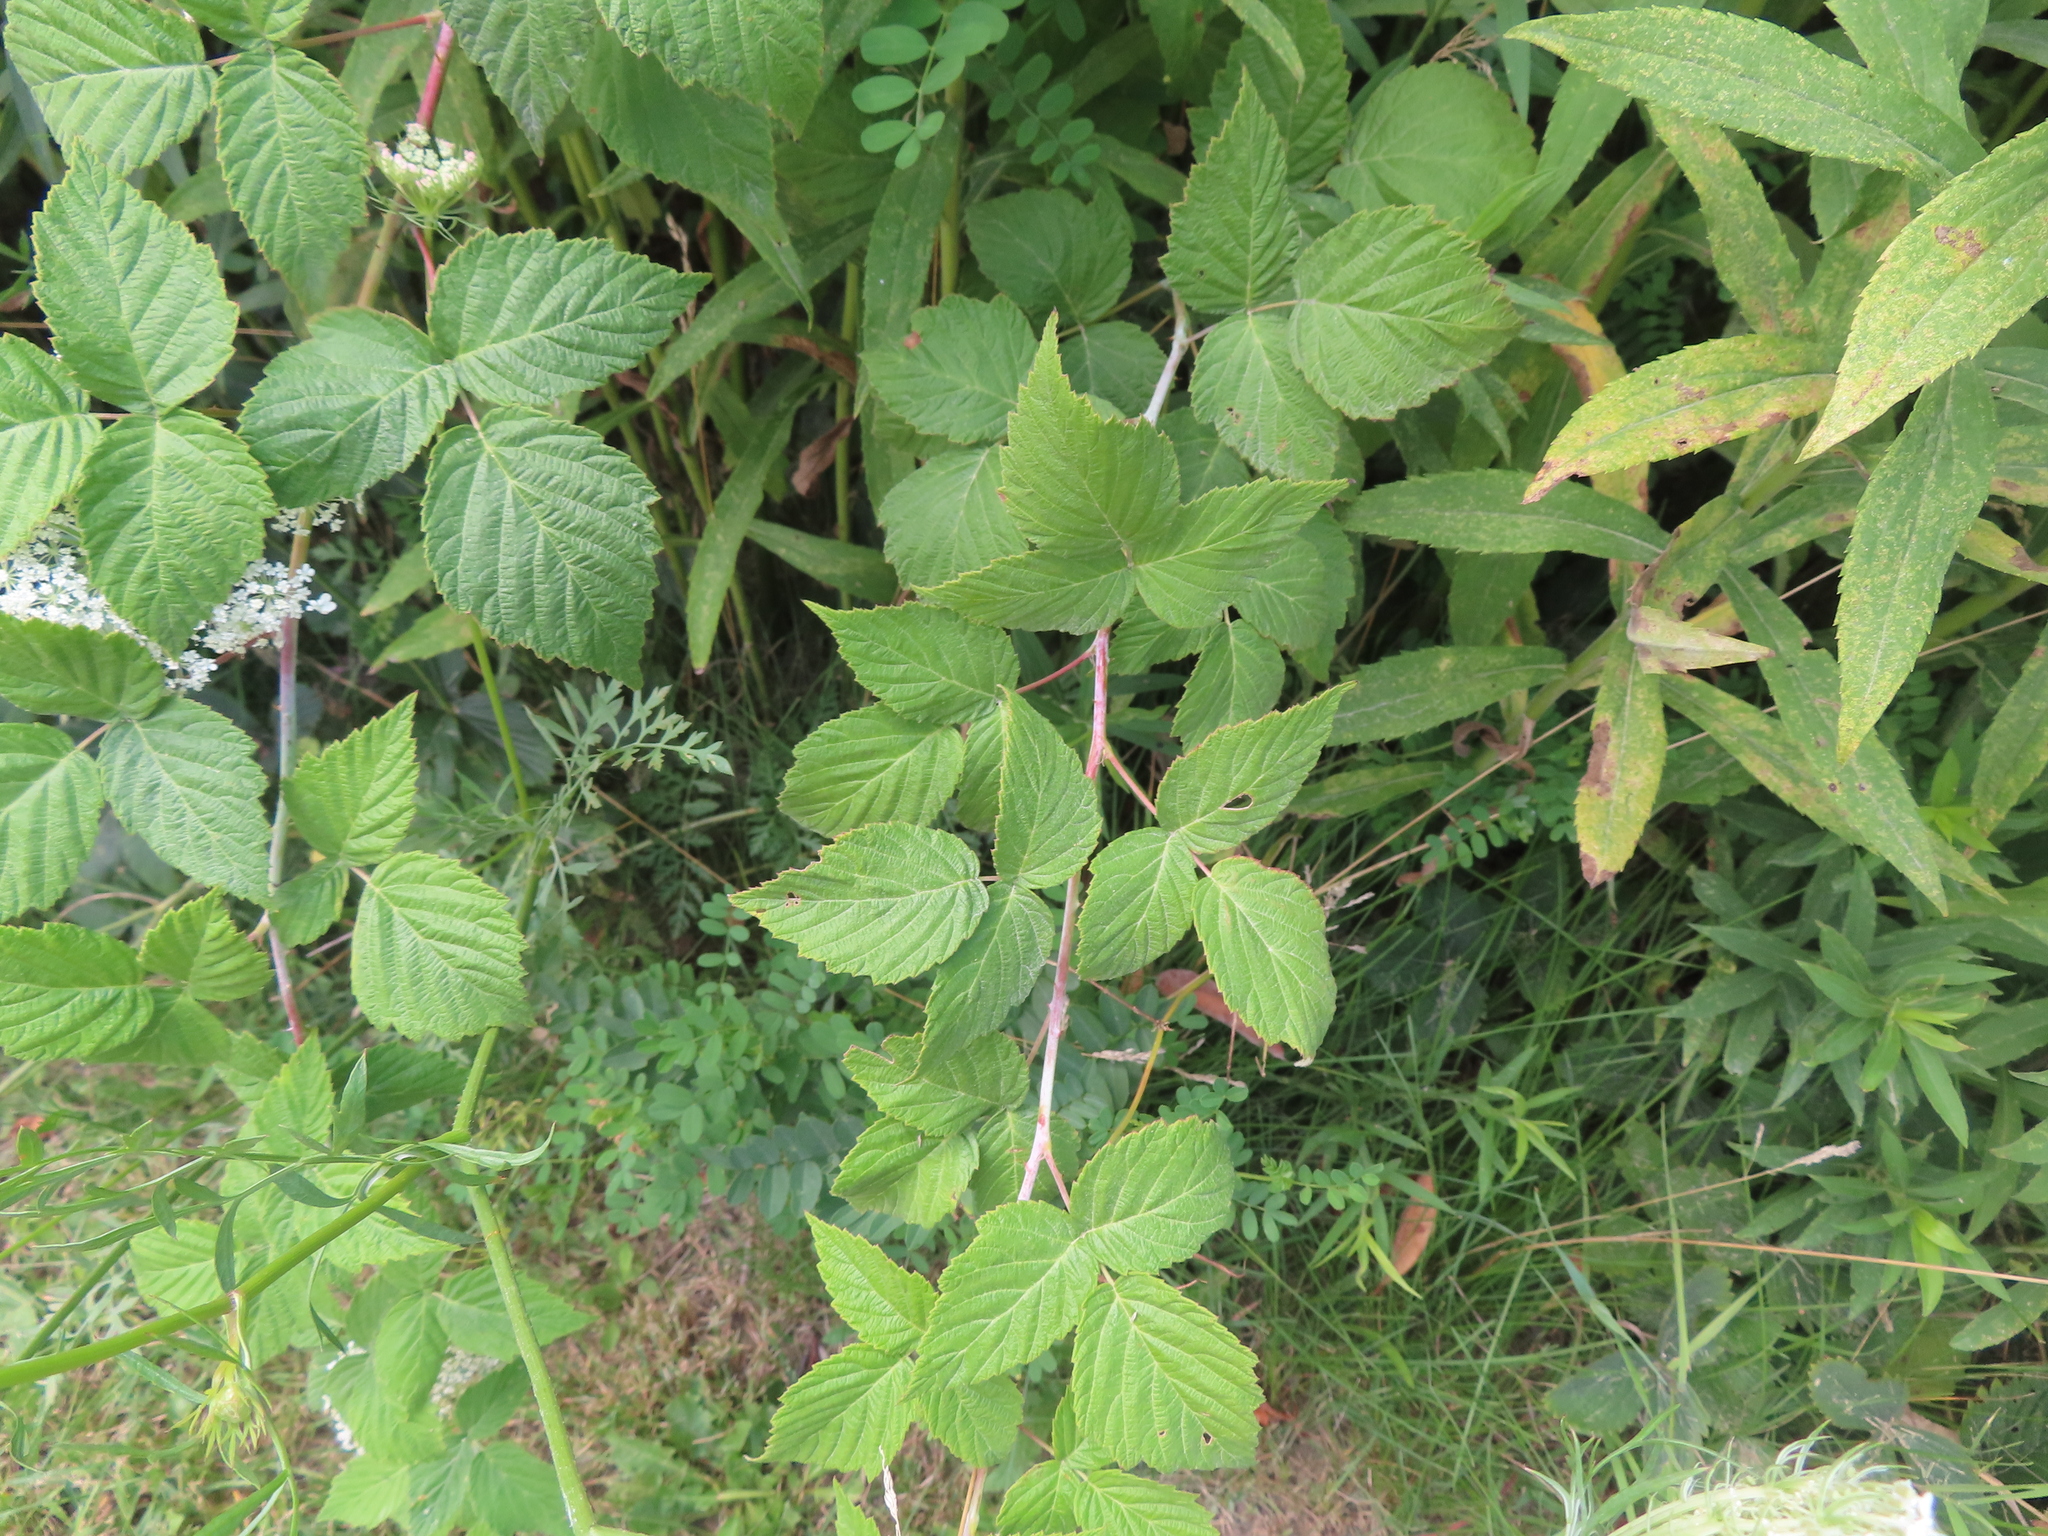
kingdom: Plantae
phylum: Tracheophyta
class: Magnoliopsida
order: Rosales
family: Rosaceae
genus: Rubus
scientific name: Rubus occidentalis
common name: Black raspberry
